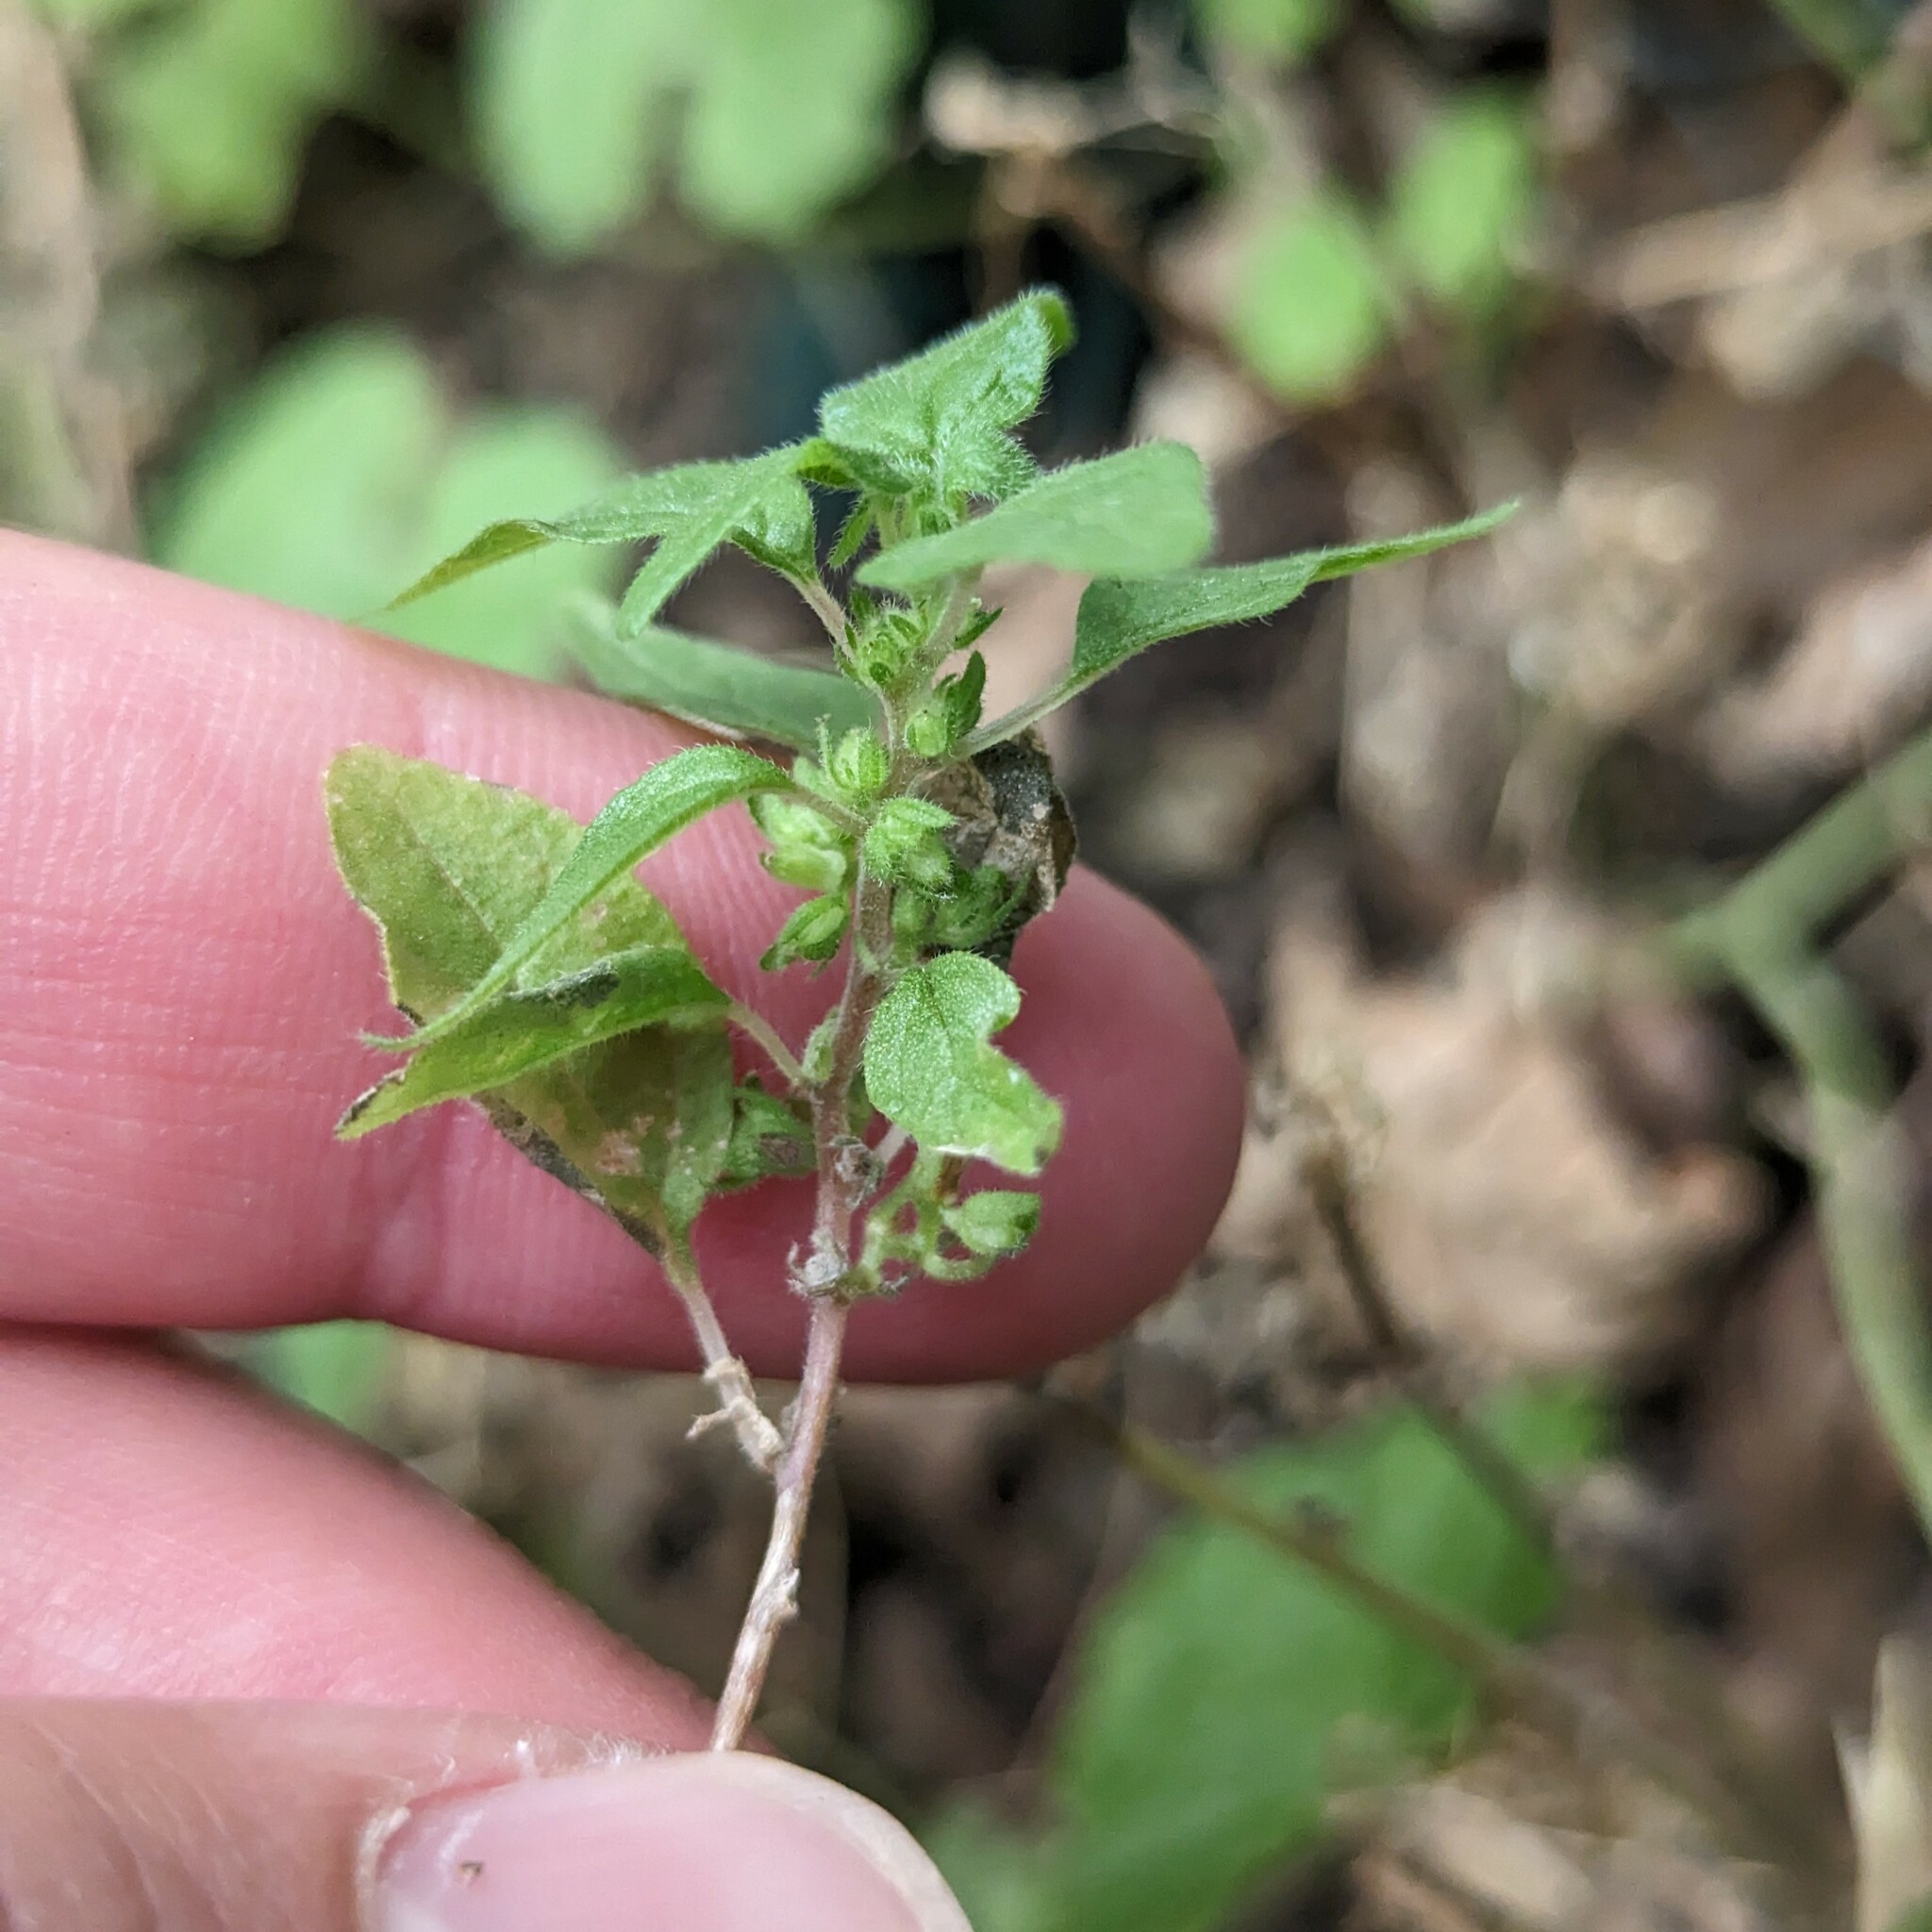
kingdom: Plantae
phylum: Tracheophyta
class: Magnoliopsida
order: Rosales
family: Urticaceae
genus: Parietaria
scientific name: Parietaria pensylvanica
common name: Pennsylvania pellitory
